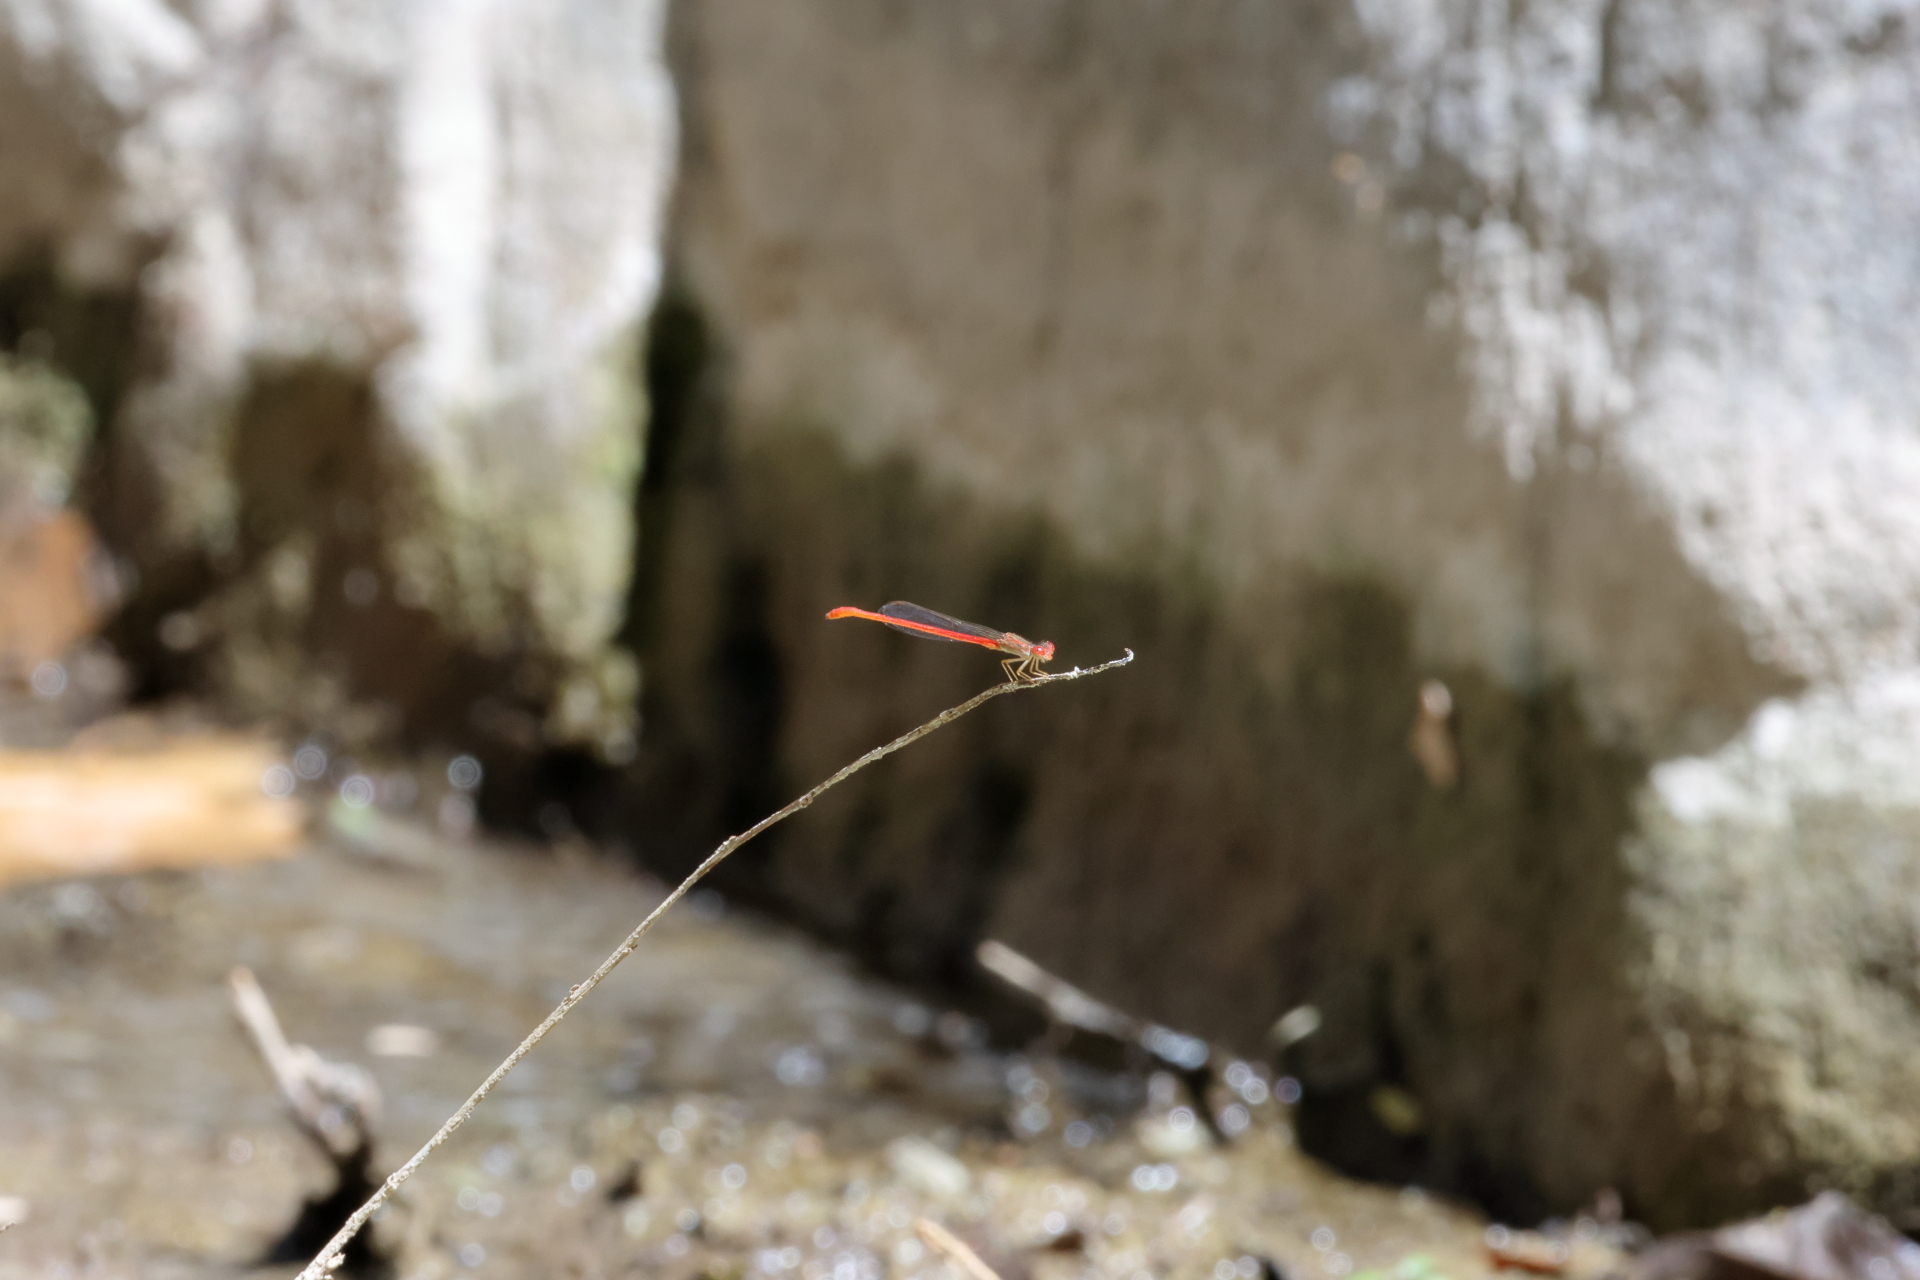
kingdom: Animalia
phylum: Arthropoda
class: Insecta
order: Odonata
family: Coenagrionidae
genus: Telebasis
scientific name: Telebasis salva
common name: Desert firetail
